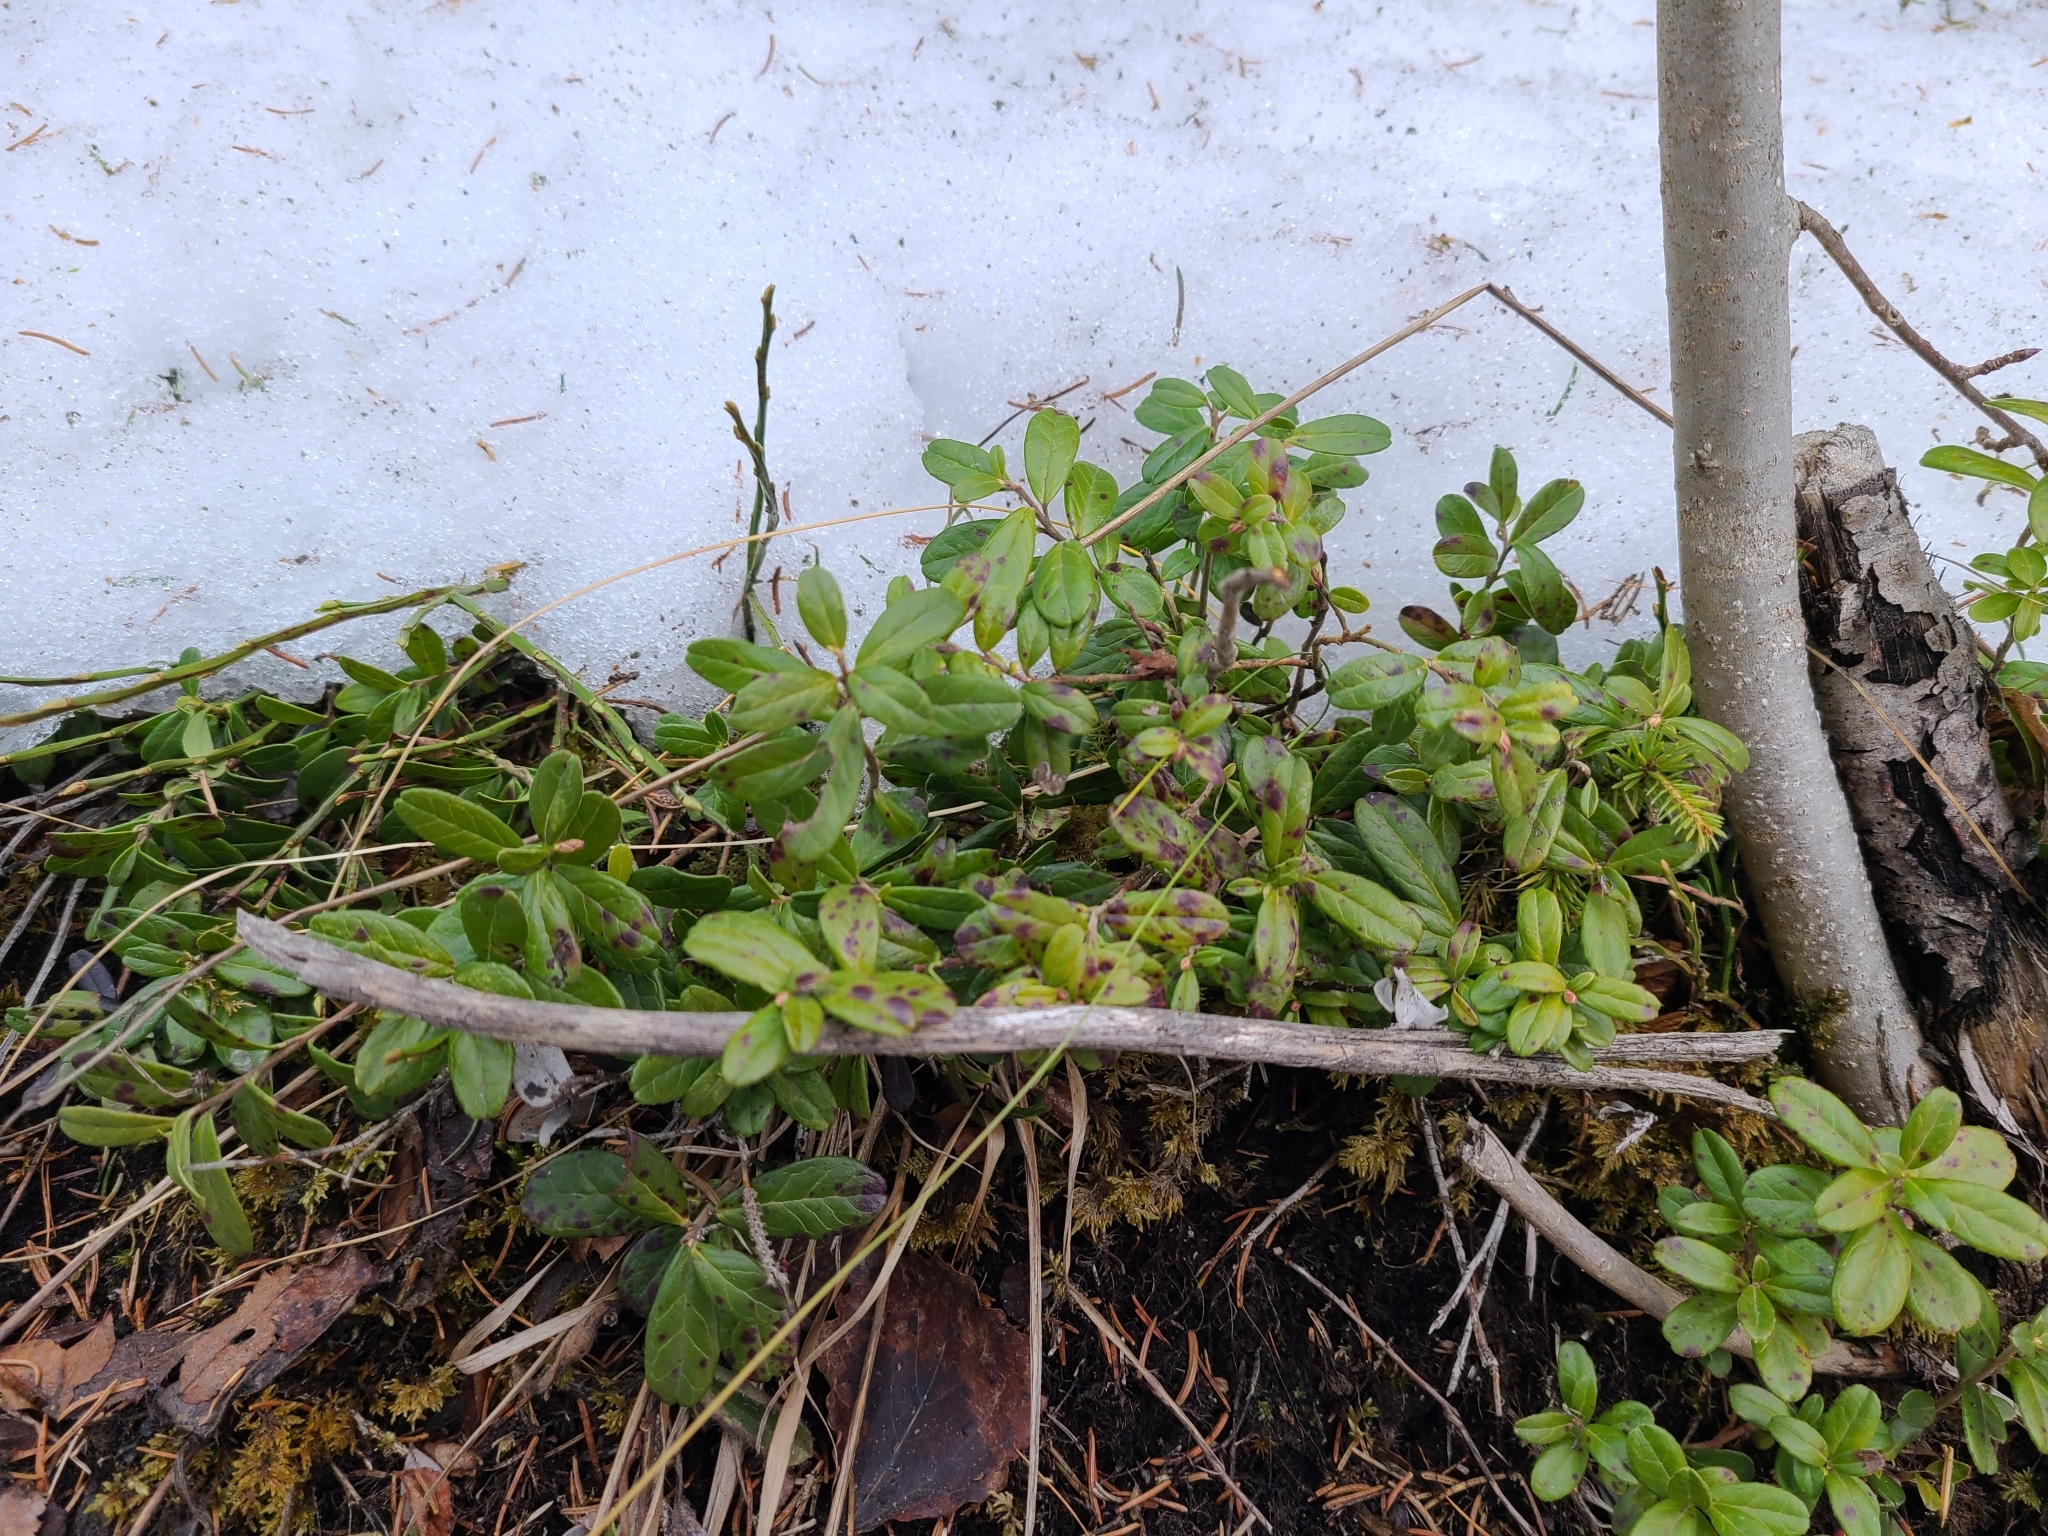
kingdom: Plantae
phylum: Tracheophyta
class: Magnoliopsida
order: Ericales
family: Ericaceae
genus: Vaccinium
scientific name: Vaccinium vitis-idaea
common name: Cowberry
